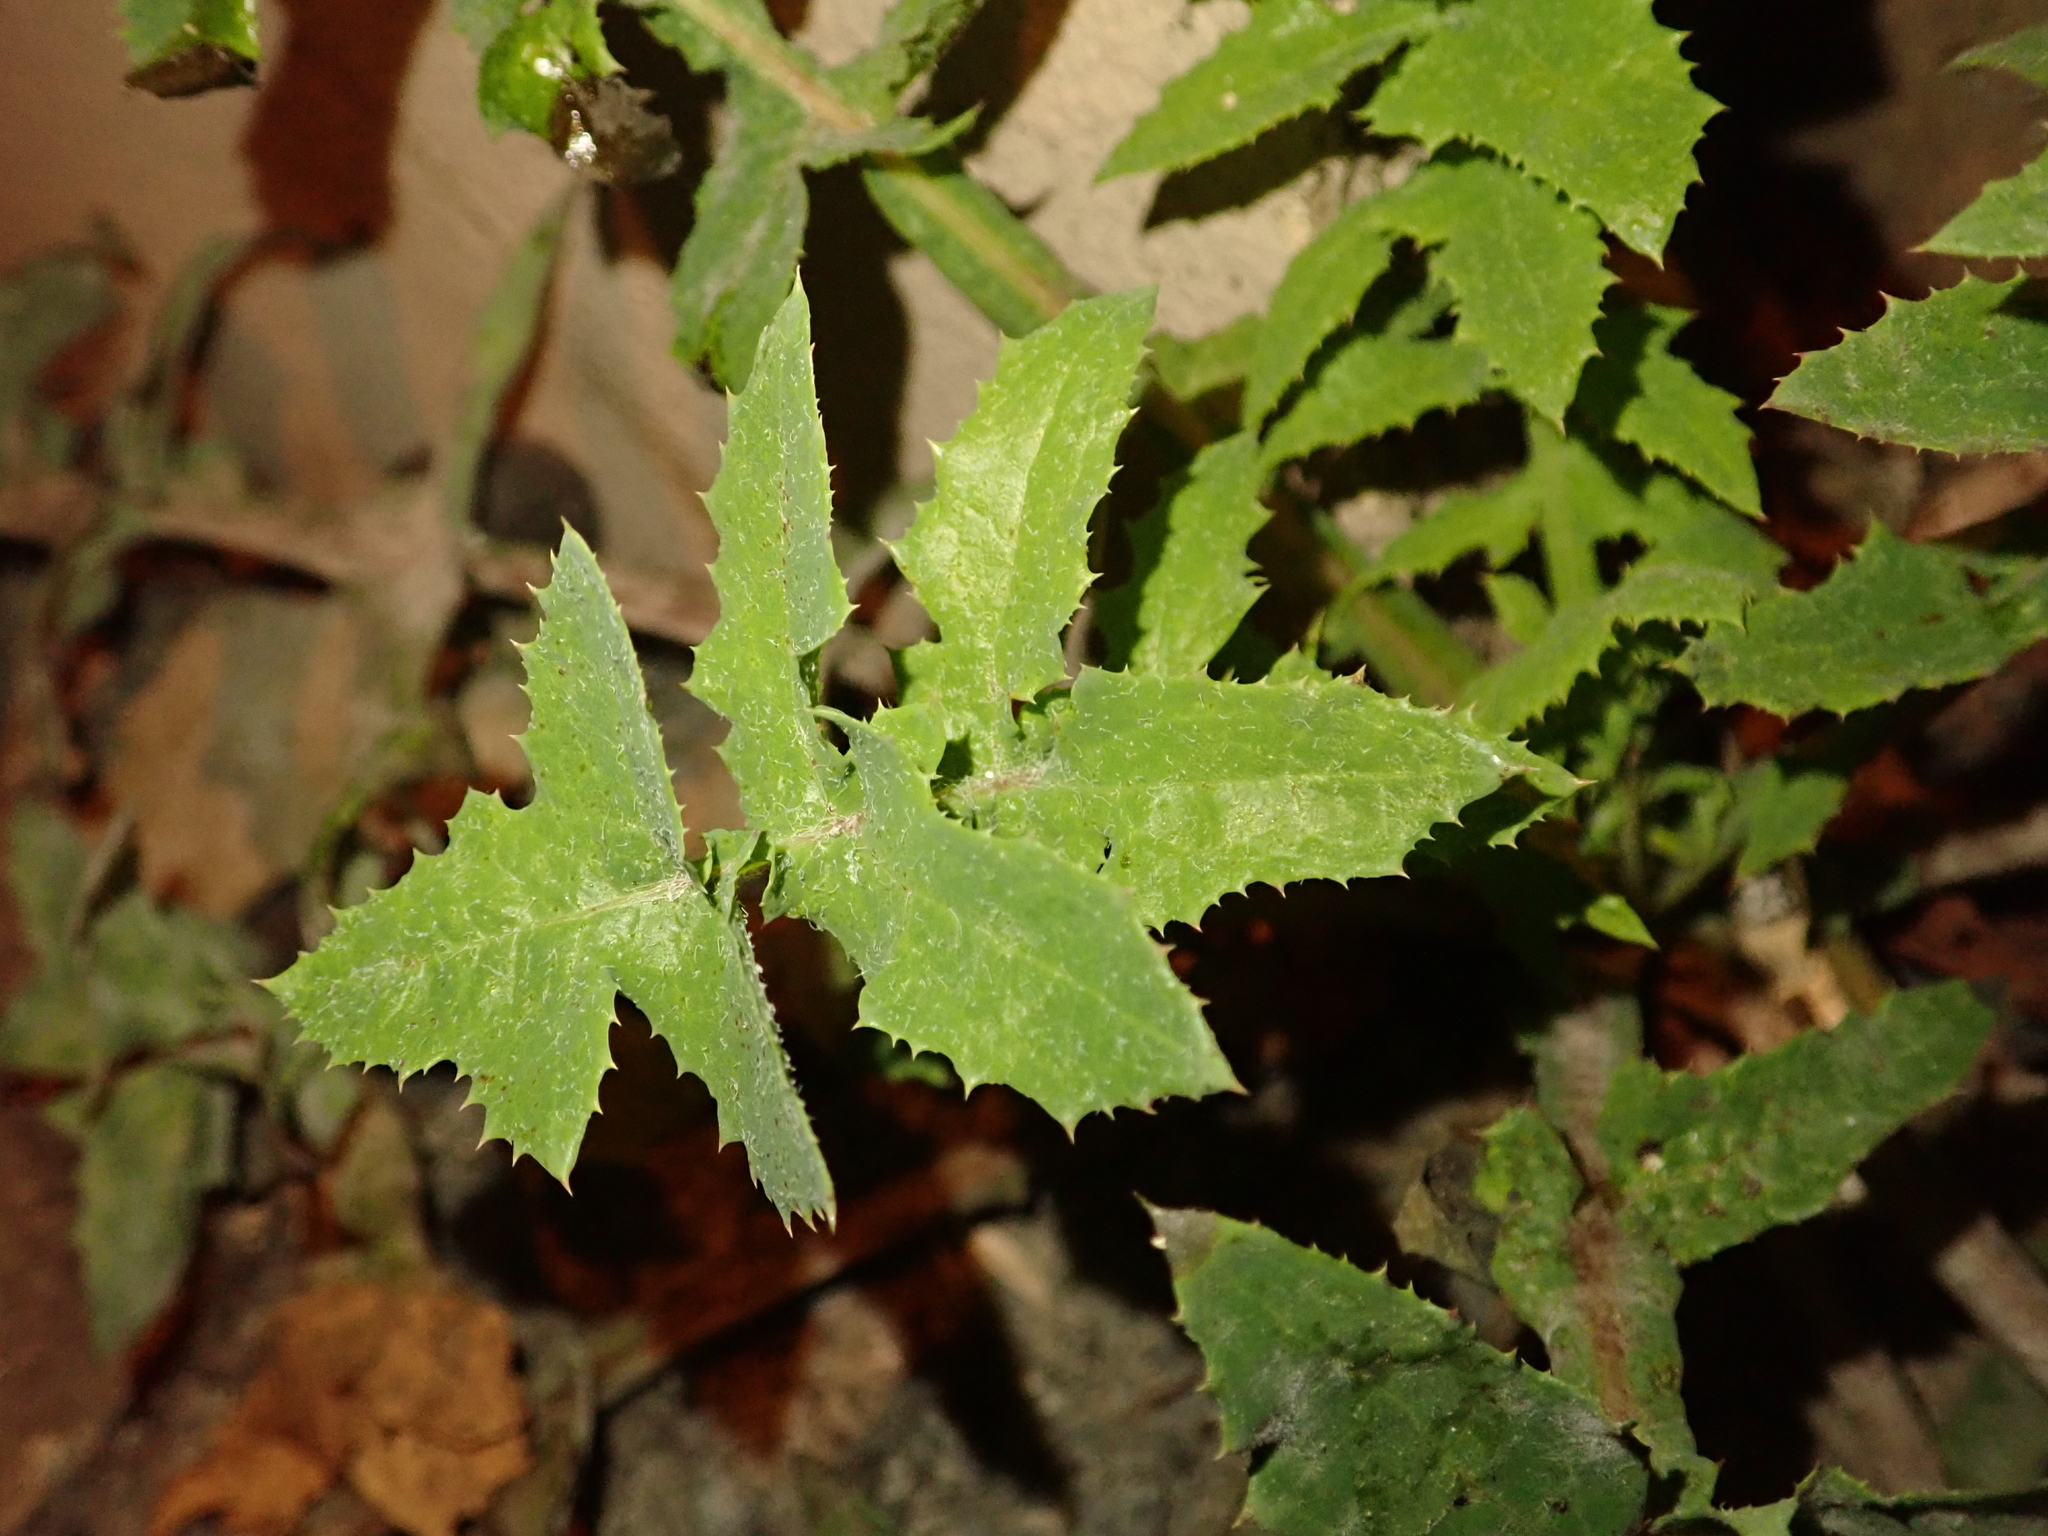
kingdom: Plantae
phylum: Tracheophyta
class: Magnoliopsida
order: Asterales
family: Asteraceae
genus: Sonchus
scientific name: Sonchus oleraceus
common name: Common sowthistle
